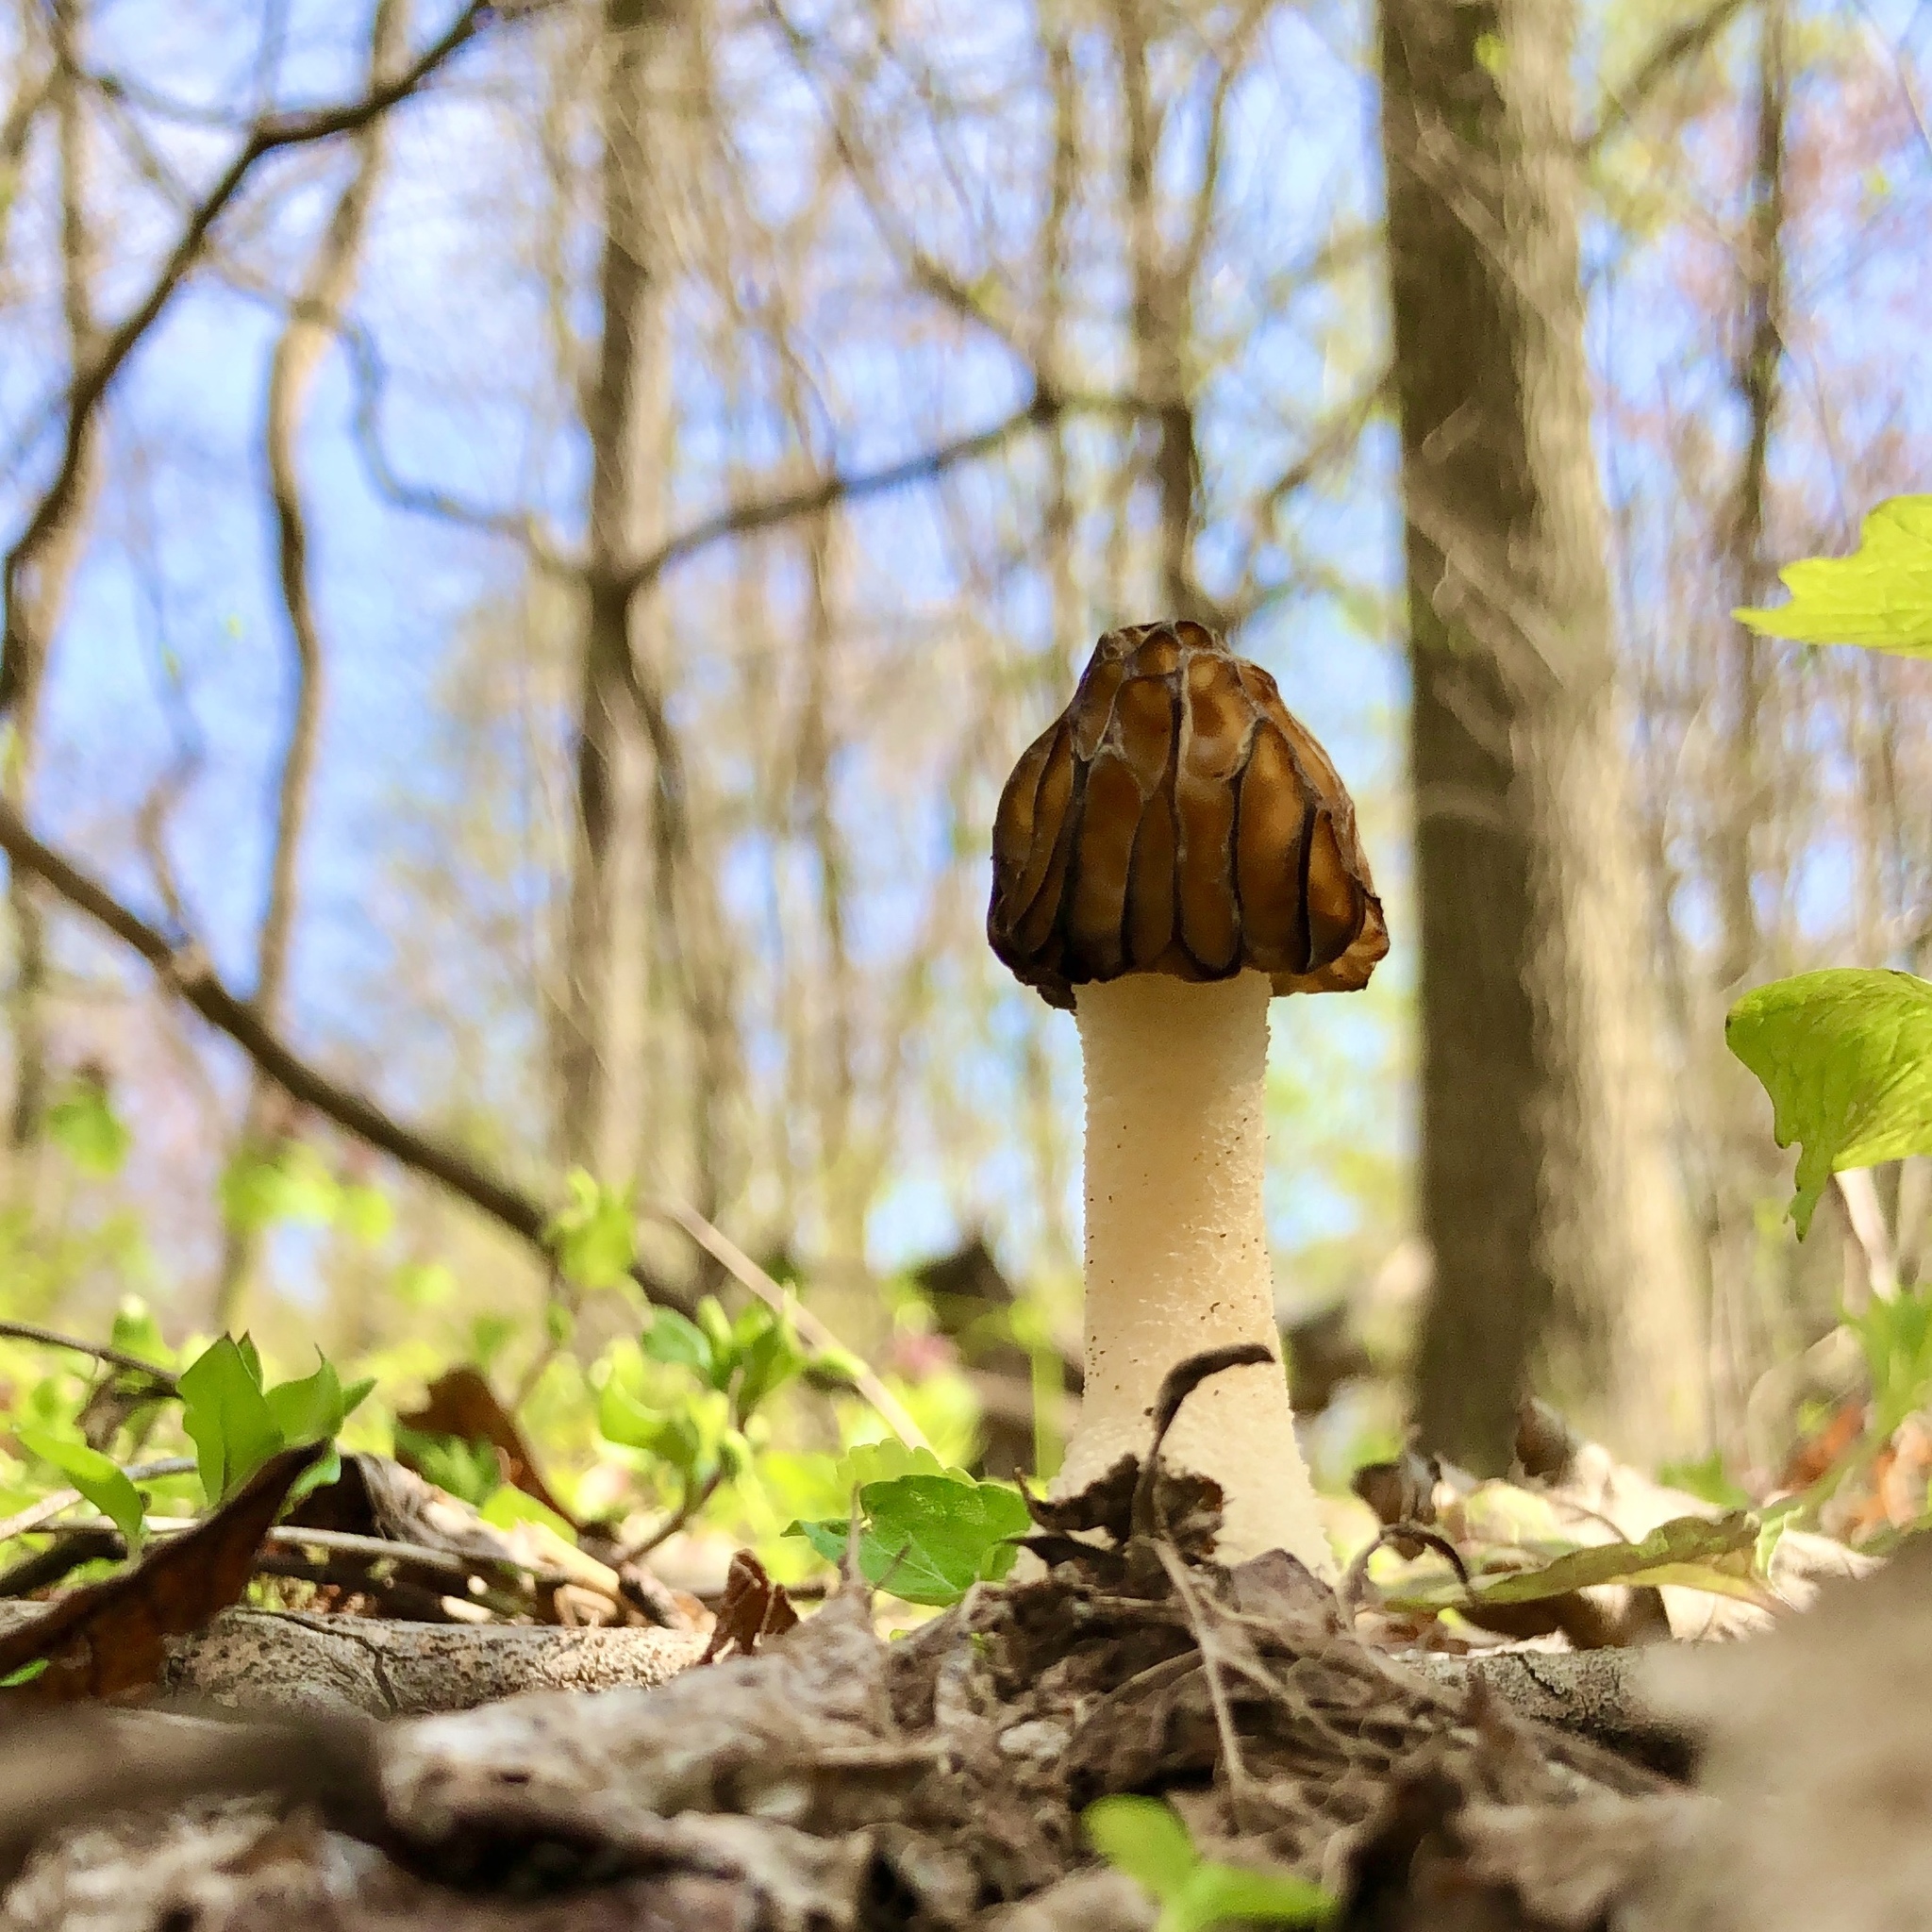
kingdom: Fungi
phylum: Ascomycota
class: Pezizomycetes
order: Pezizales
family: Morchellaceae
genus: Morchella
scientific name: Morchella punctipes
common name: Half-free morel
